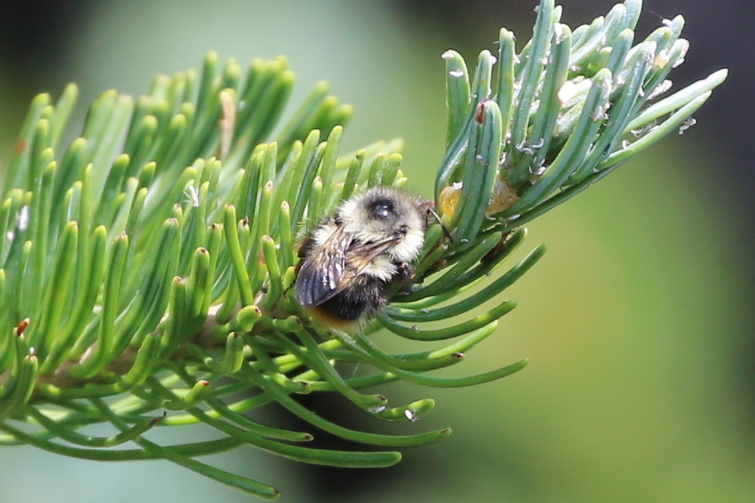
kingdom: Animalia
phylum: Arthropoda
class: Insecta
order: Hymenoptera
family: Apidae
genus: Bombus
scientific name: Bombus mixtus
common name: Fuzzy-horned bumble bee
